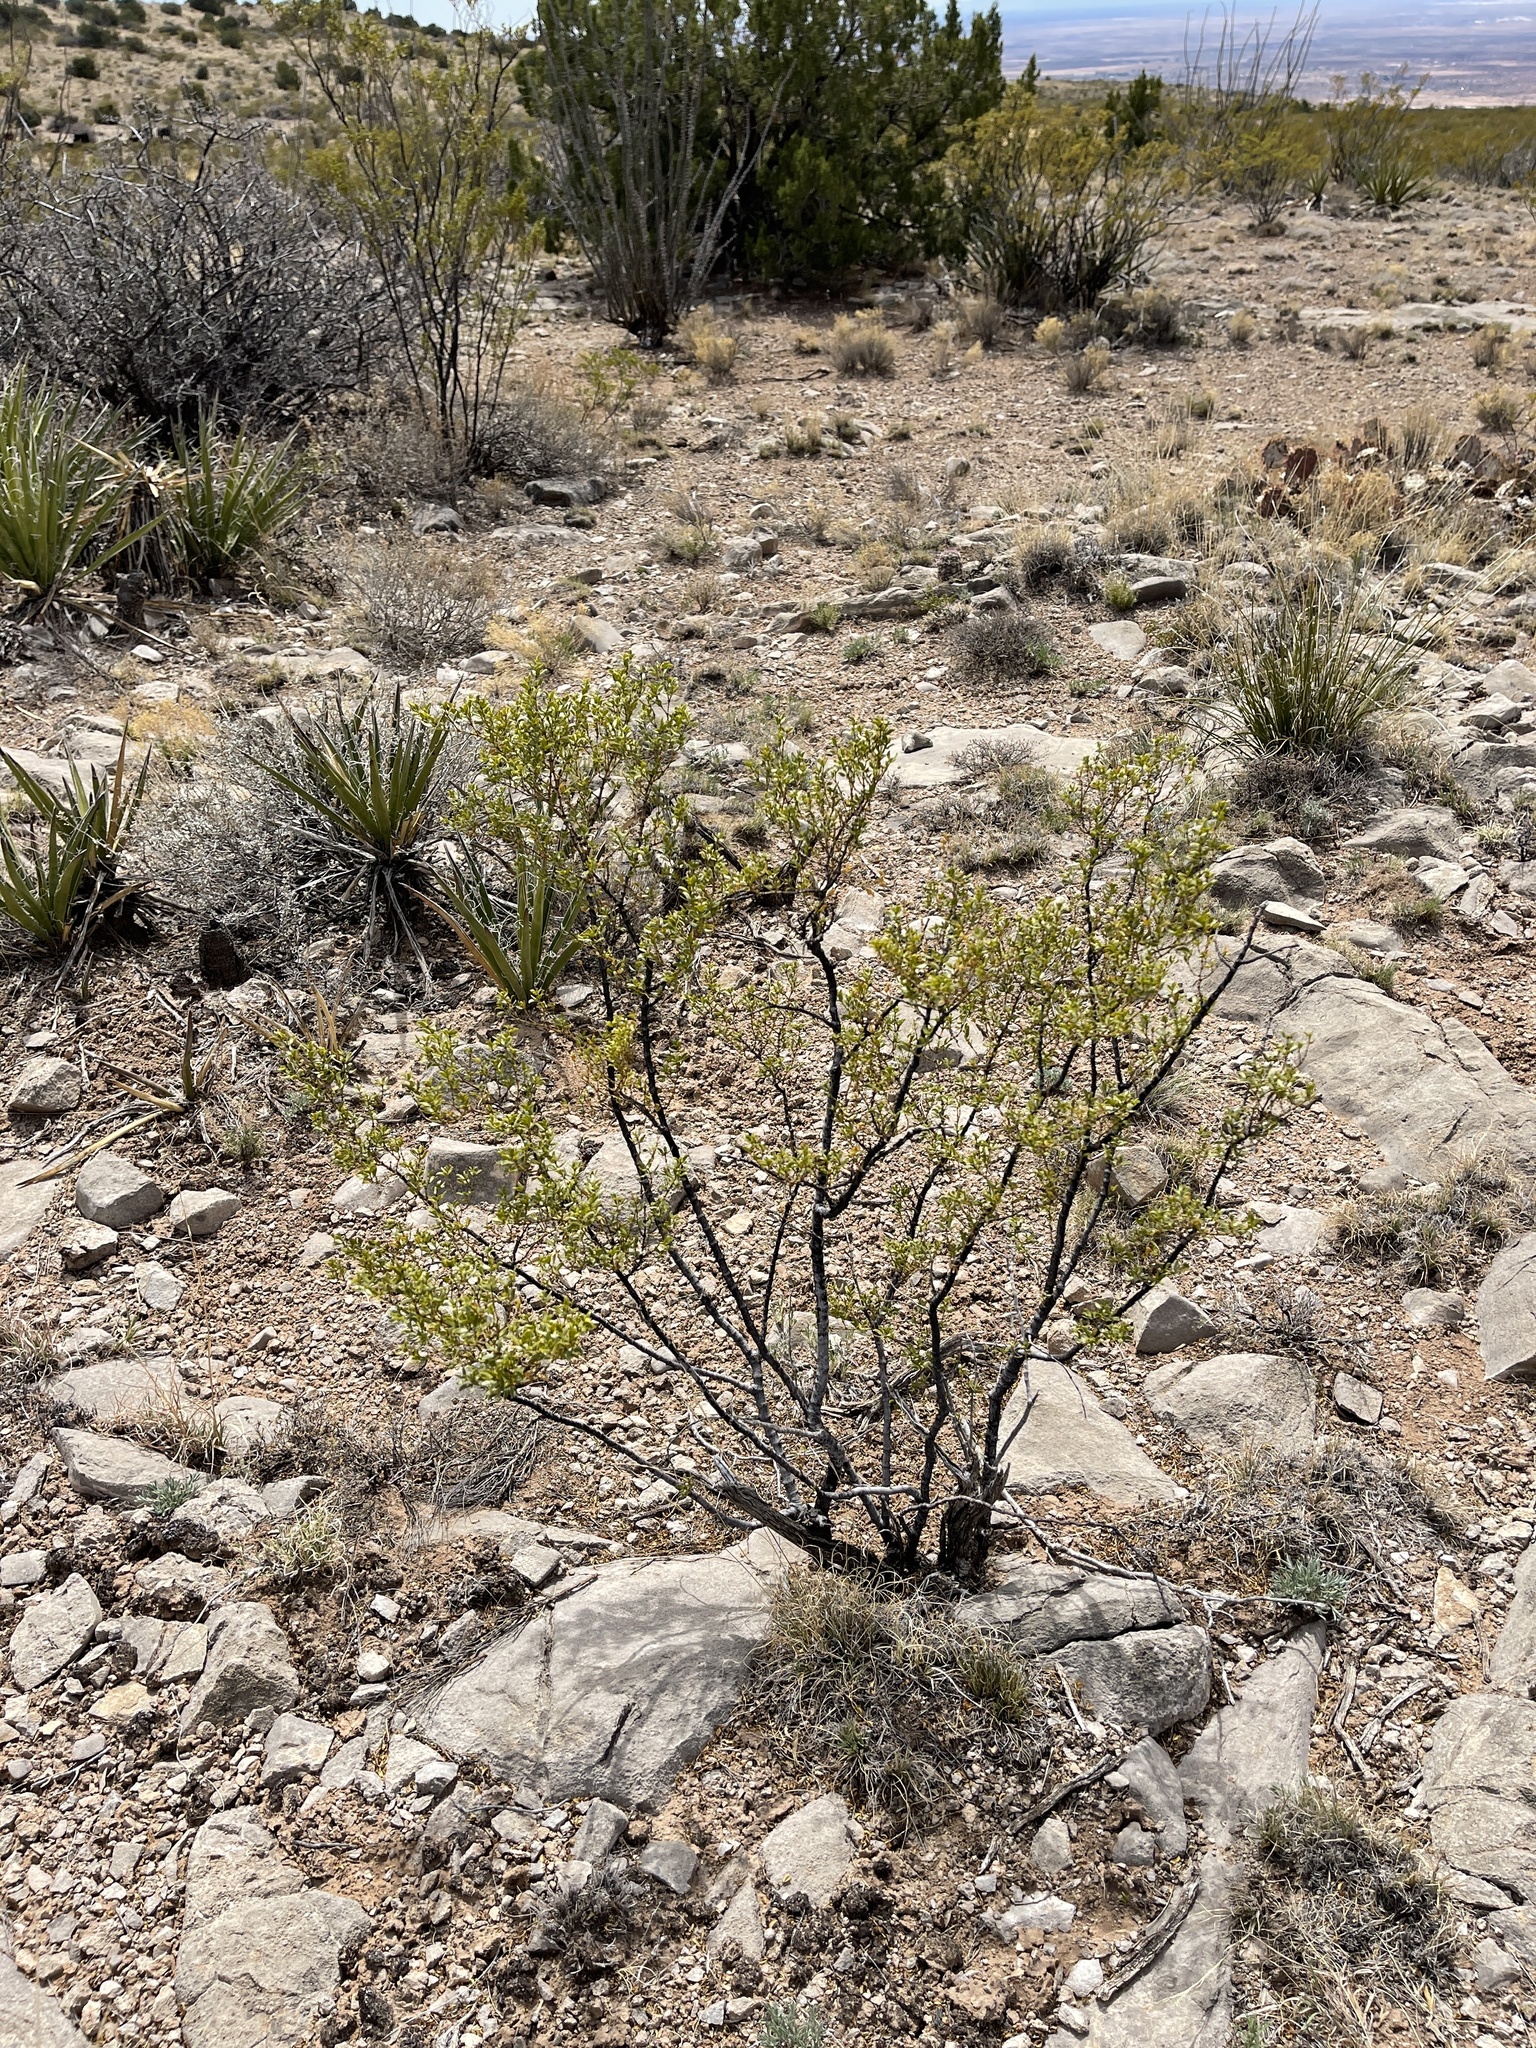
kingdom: Plantae
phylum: Tracheophyta
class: Magnoliopsida
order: Zygophyllales
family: Zygophyllaceae
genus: Larrea
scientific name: Larrea tridentata
